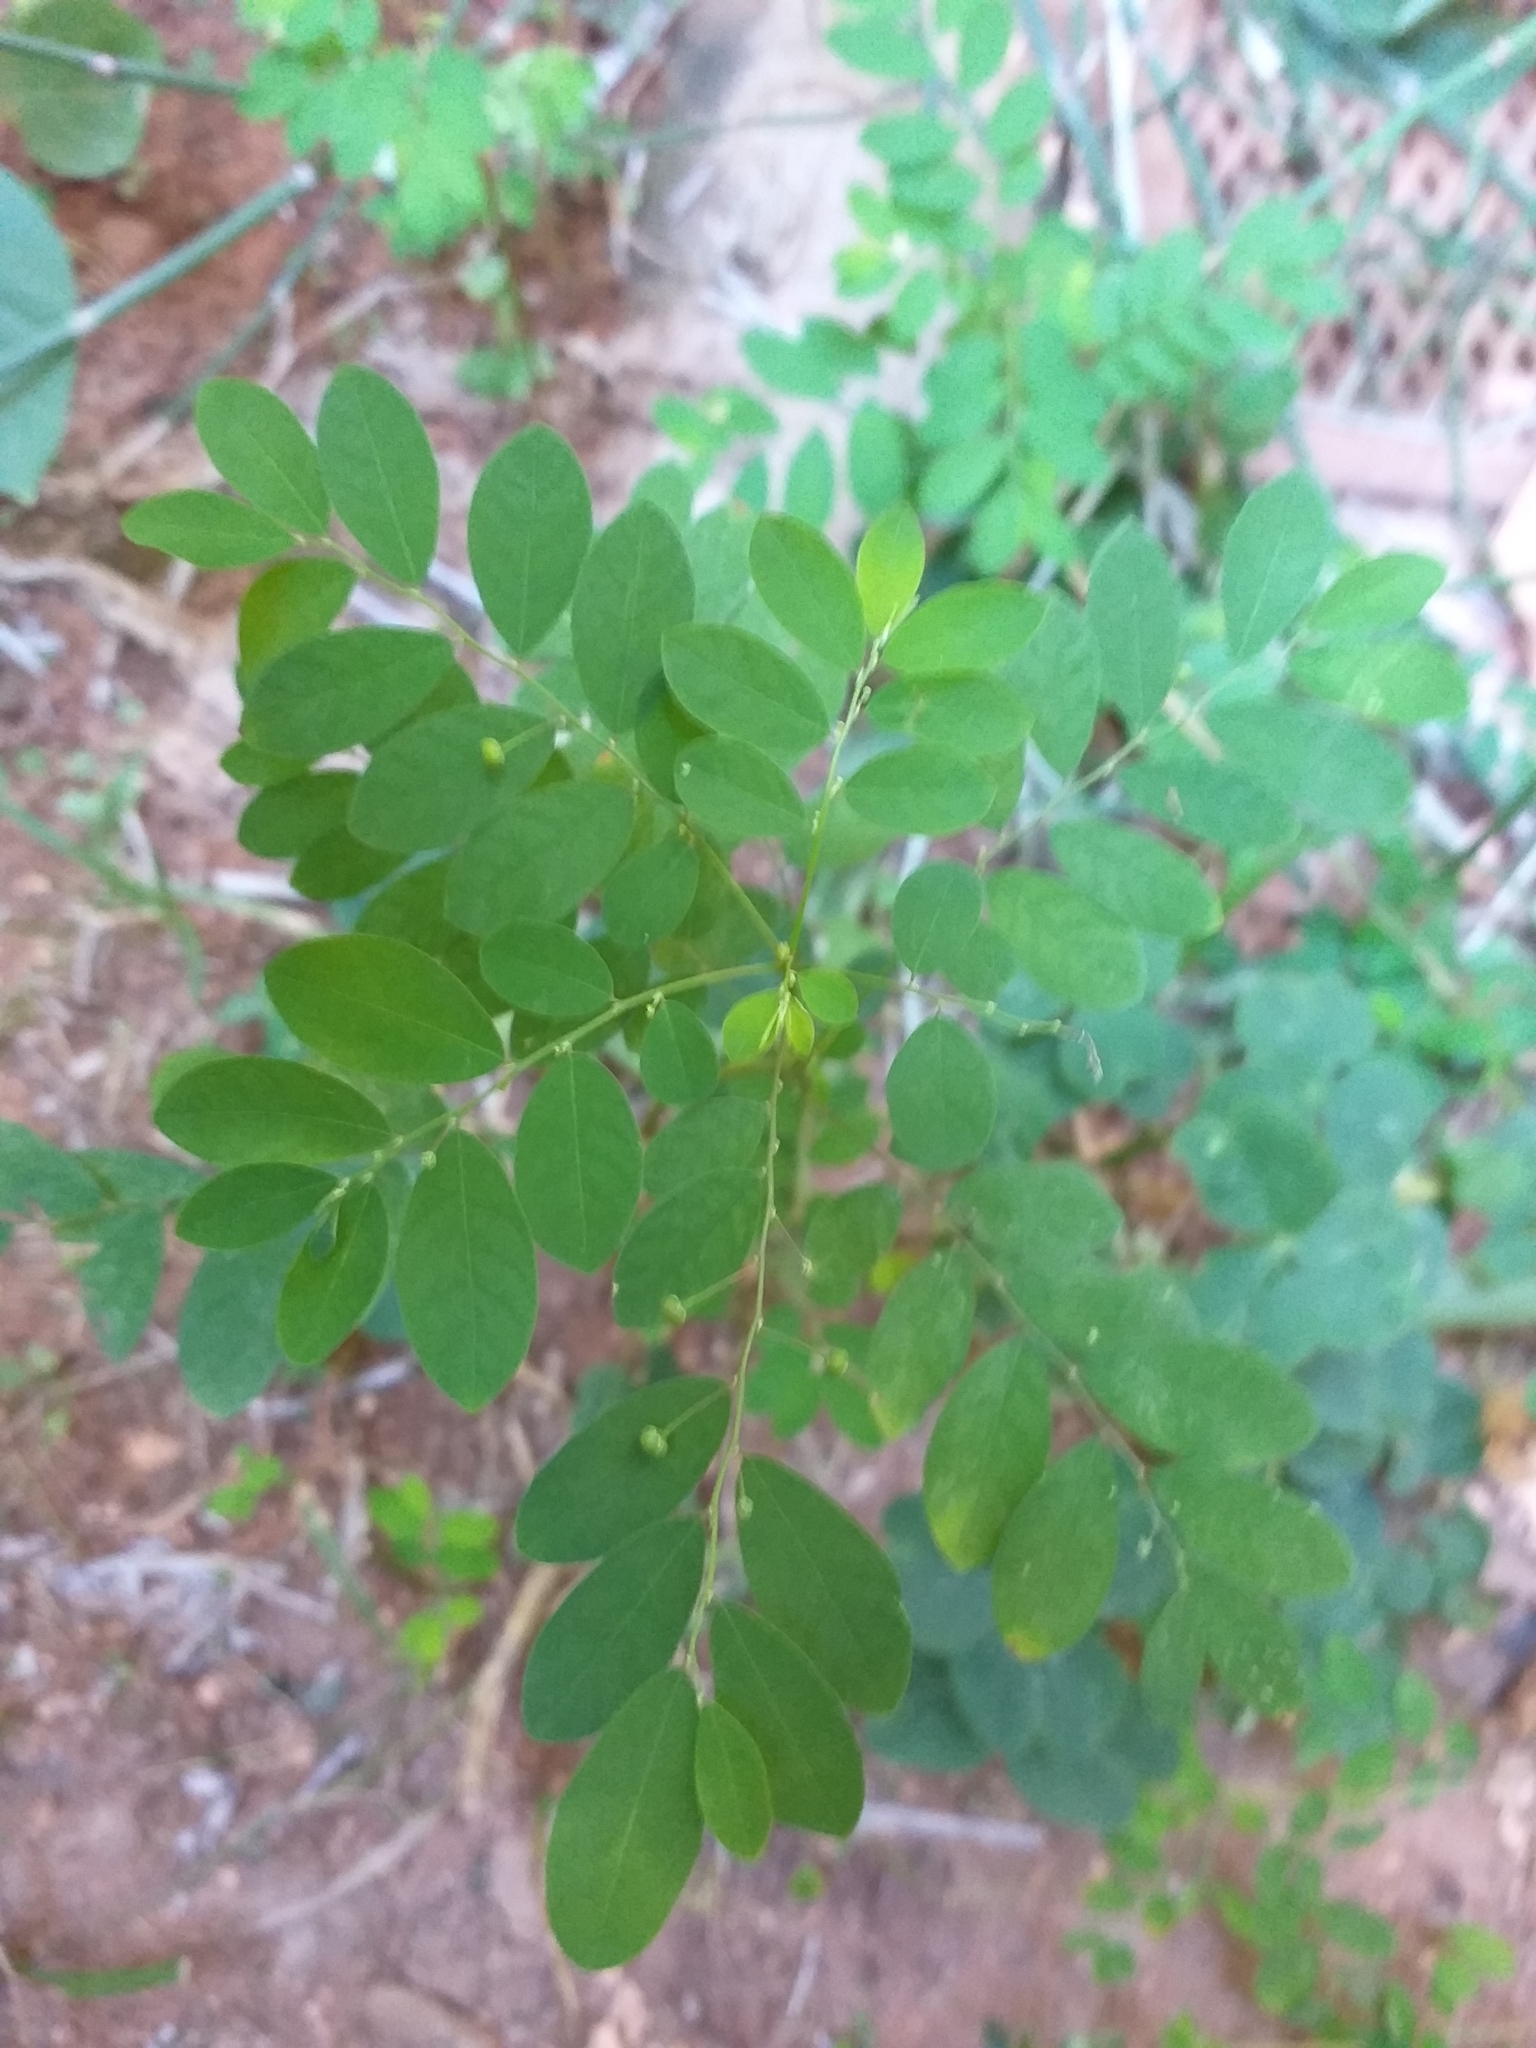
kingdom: Plantae
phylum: Tracheophyta
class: Magnoliopsida
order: Malpighiales
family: Phyllanthaceae
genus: Phyllanthus
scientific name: Phyllanthus tenellus
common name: Mascarene island leaf-flower
